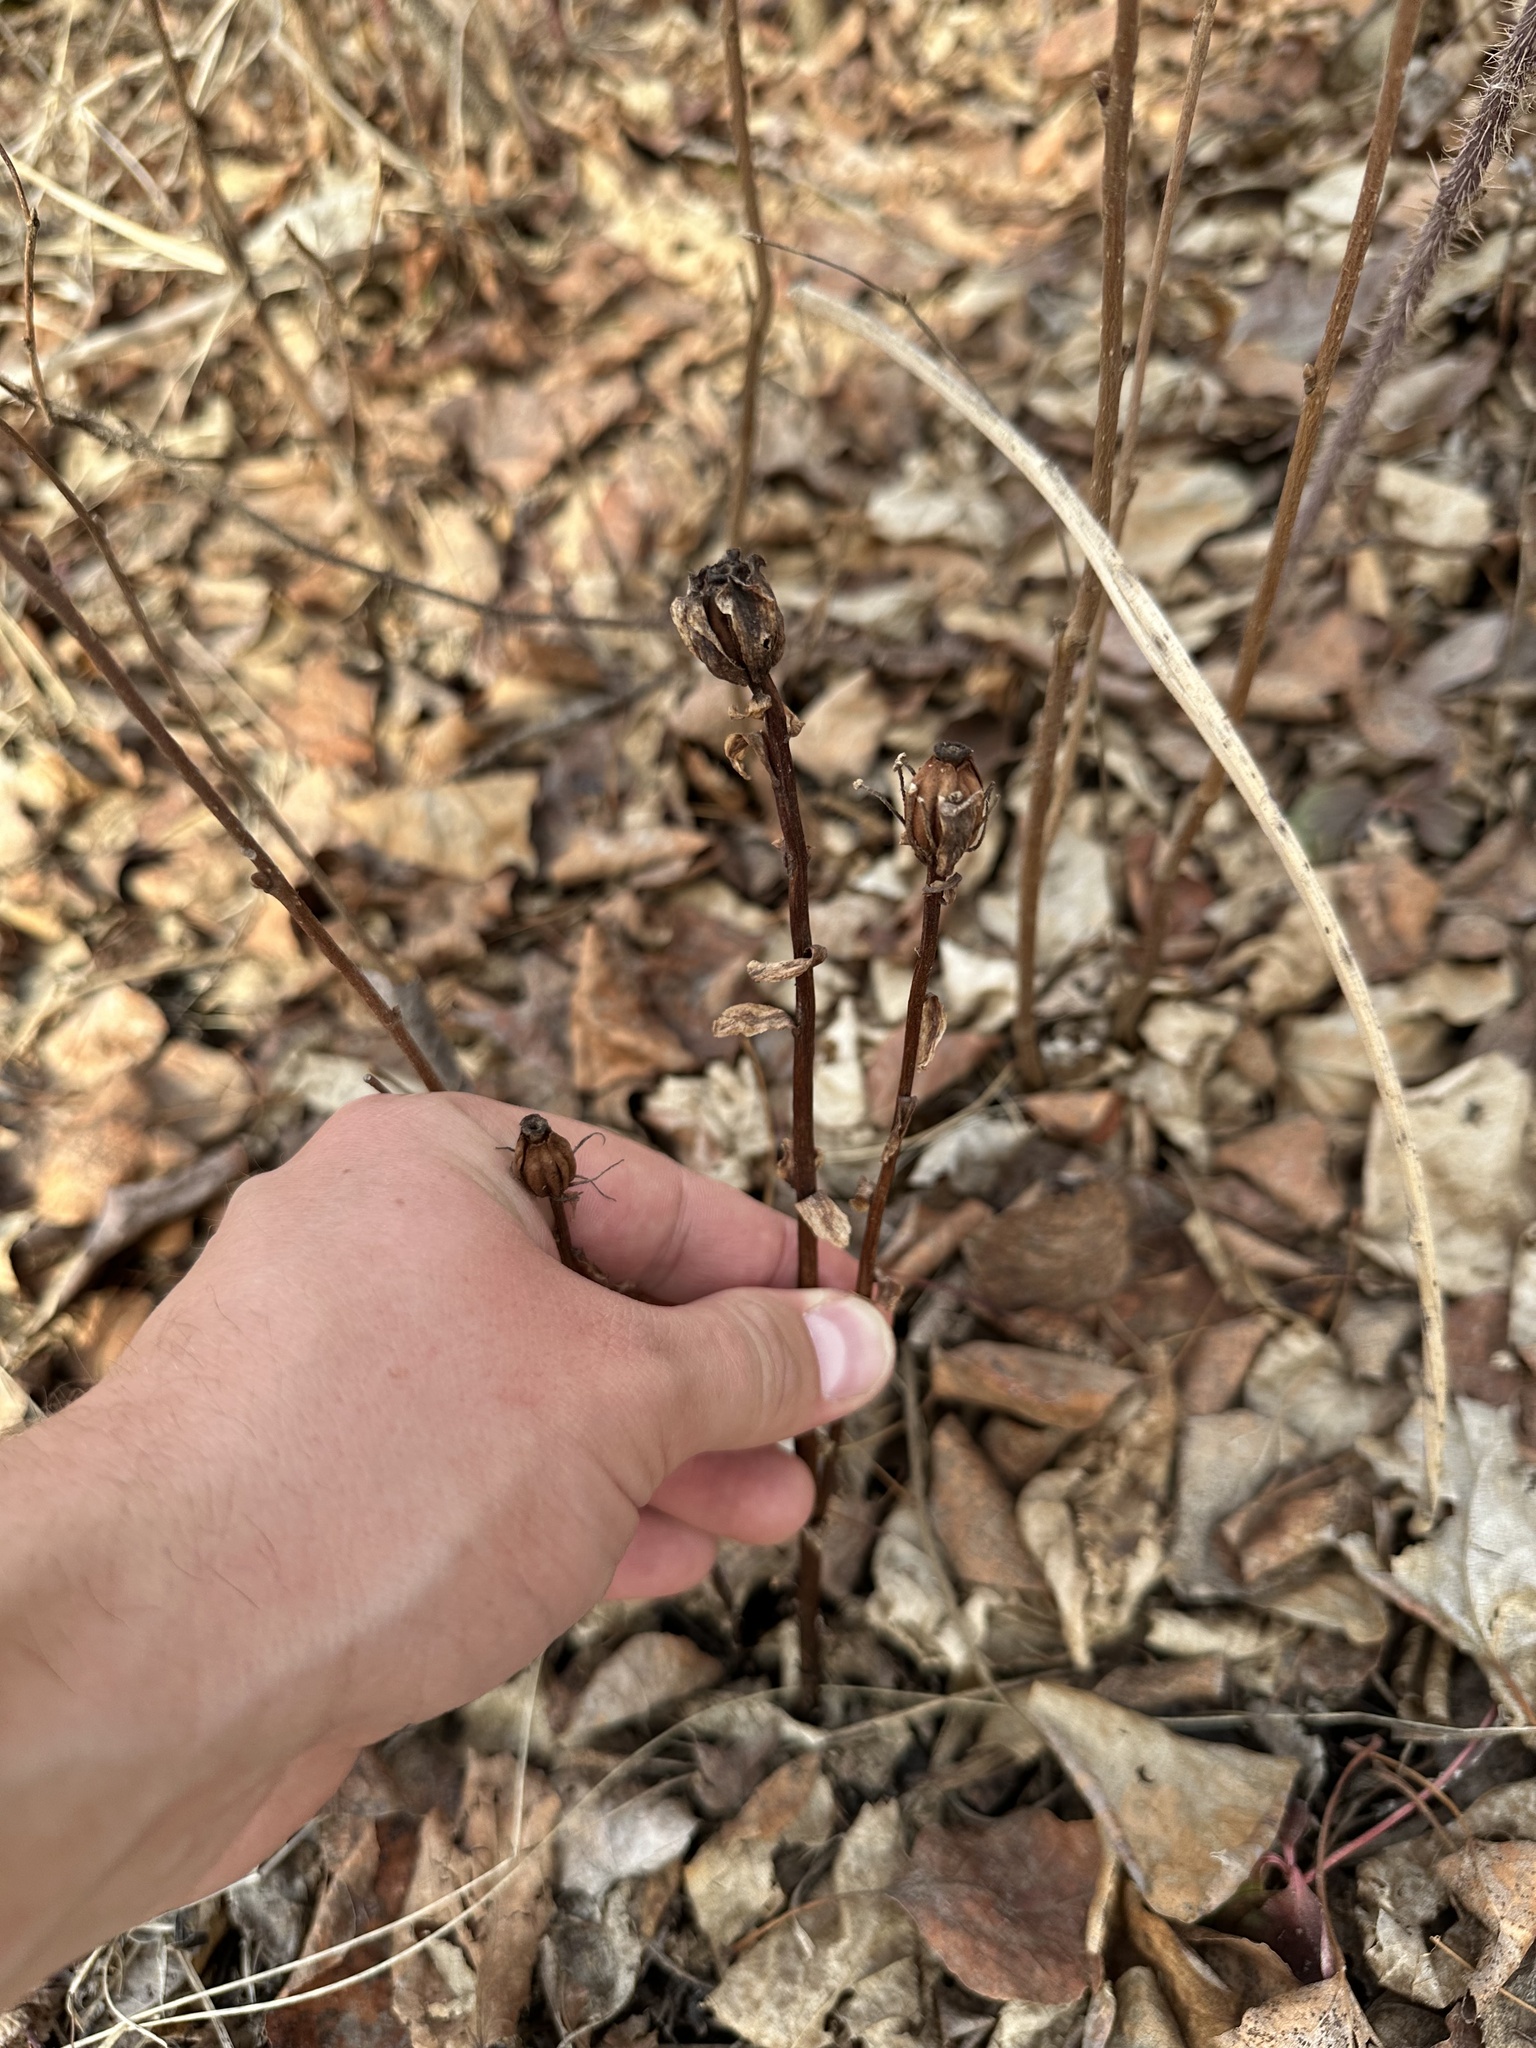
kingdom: Plantae
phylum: Tracheophyta
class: Magnoliopsida
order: Ericales
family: Ericaceae
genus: Monotropa
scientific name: Monotropa uniflora
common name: Convulsion root
